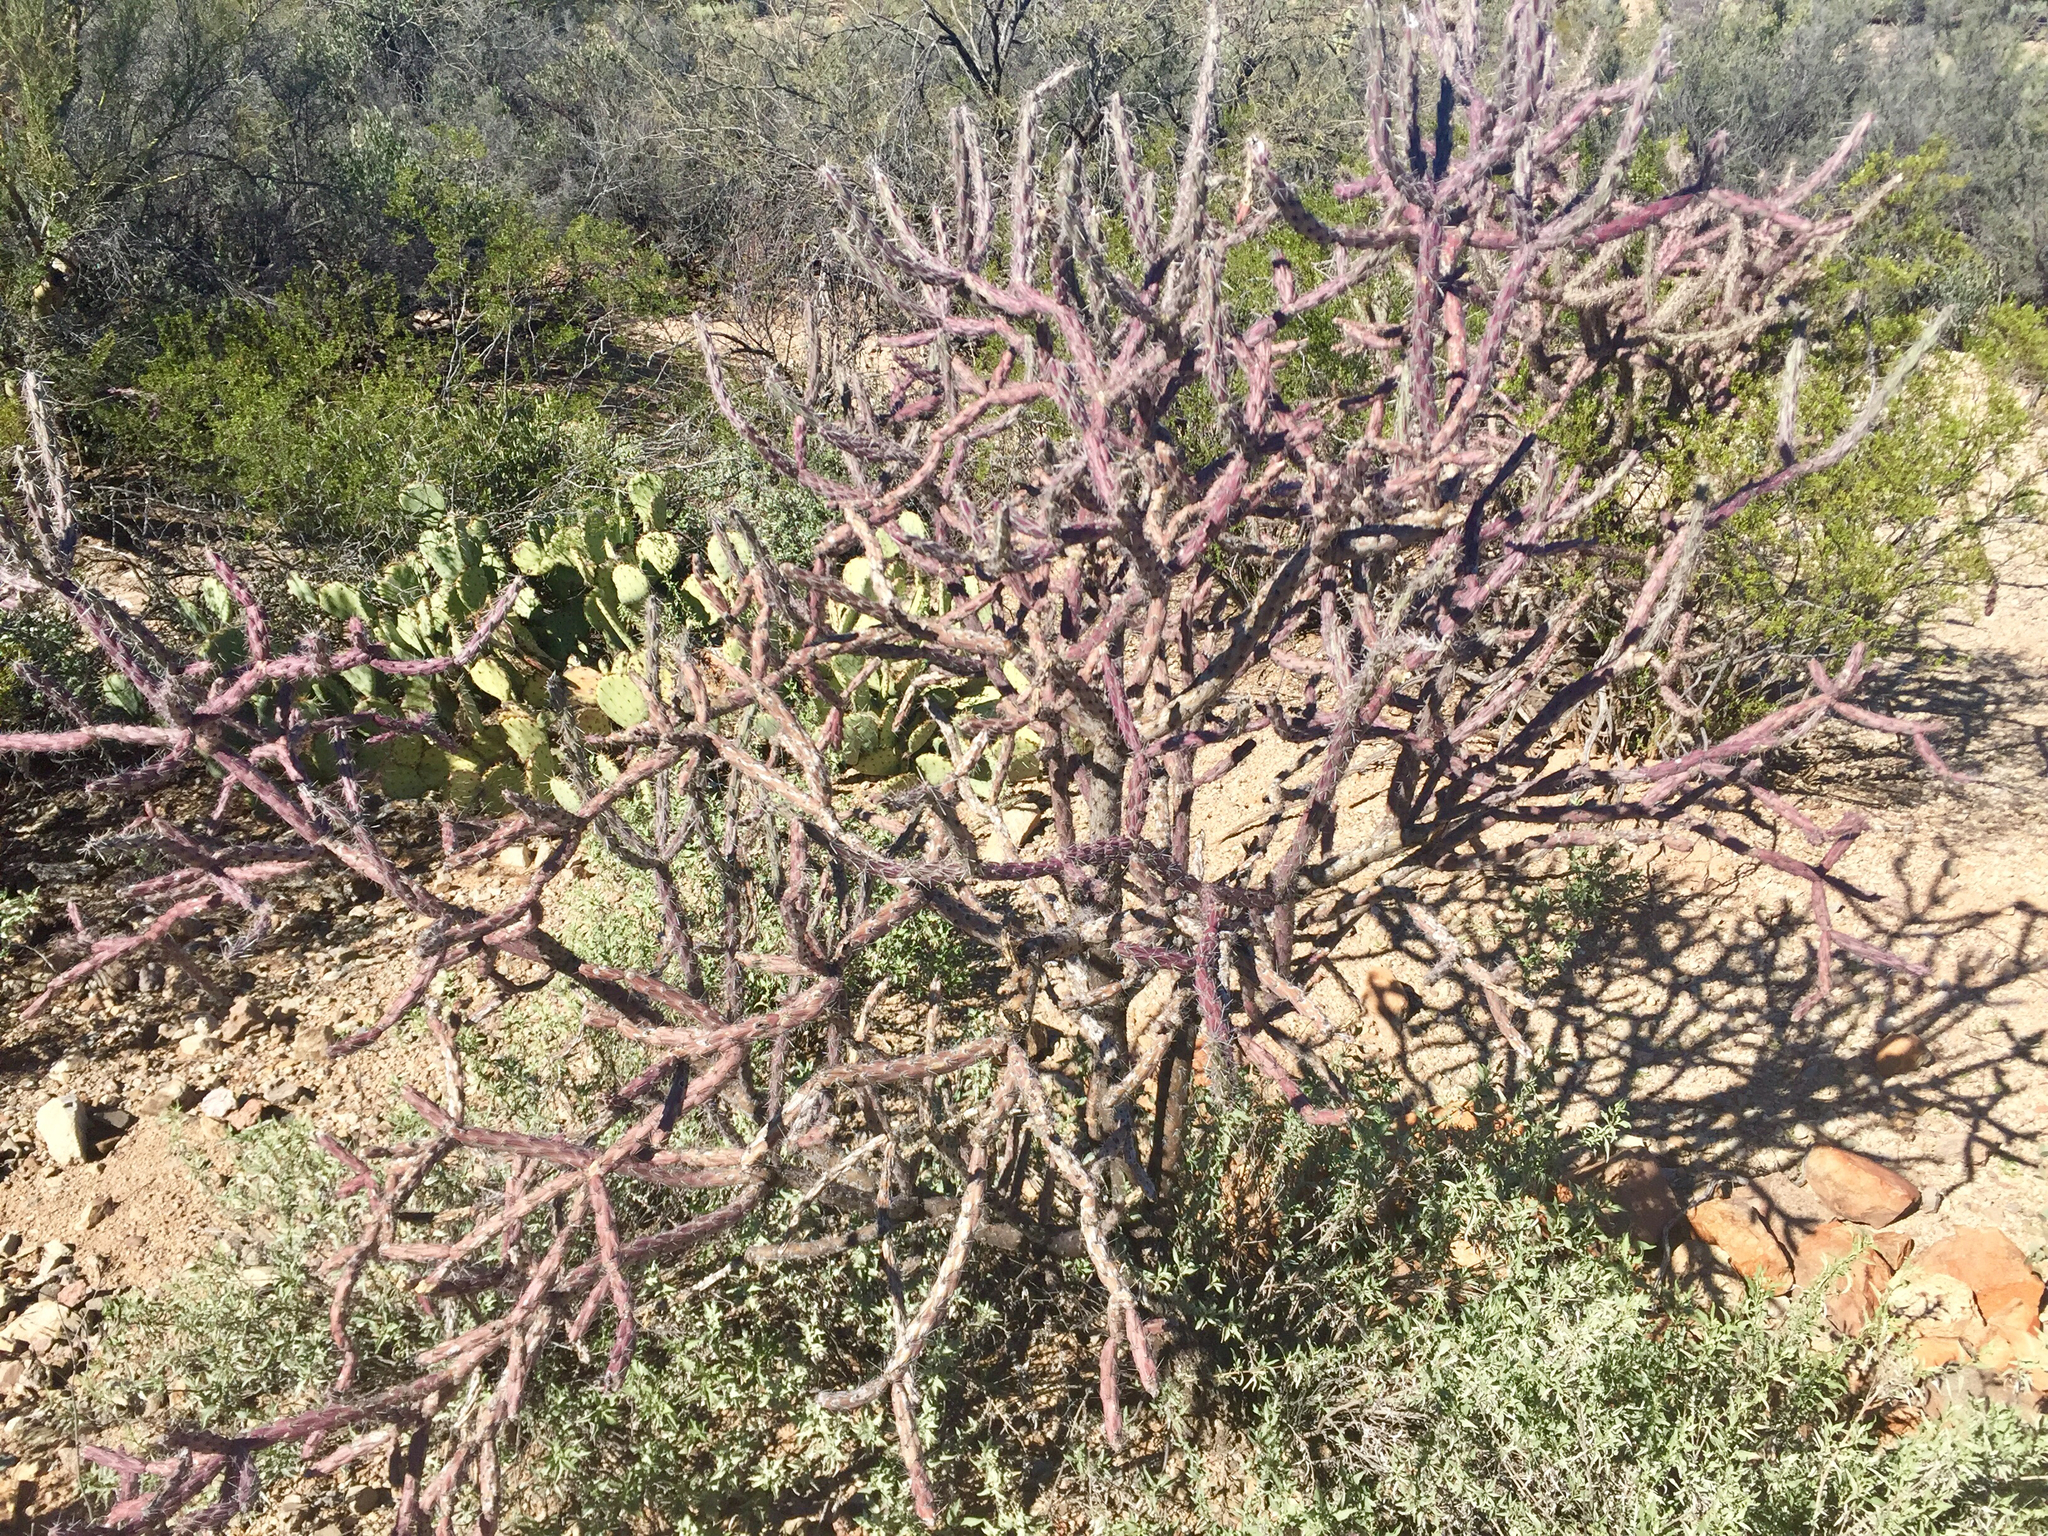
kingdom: Plantae
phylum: Tracheophyta
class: Magnoliopsida
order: Caryophyllales
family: Cactaceae
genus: Cylindropuntia
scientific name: Cylindropuntia thurberi
